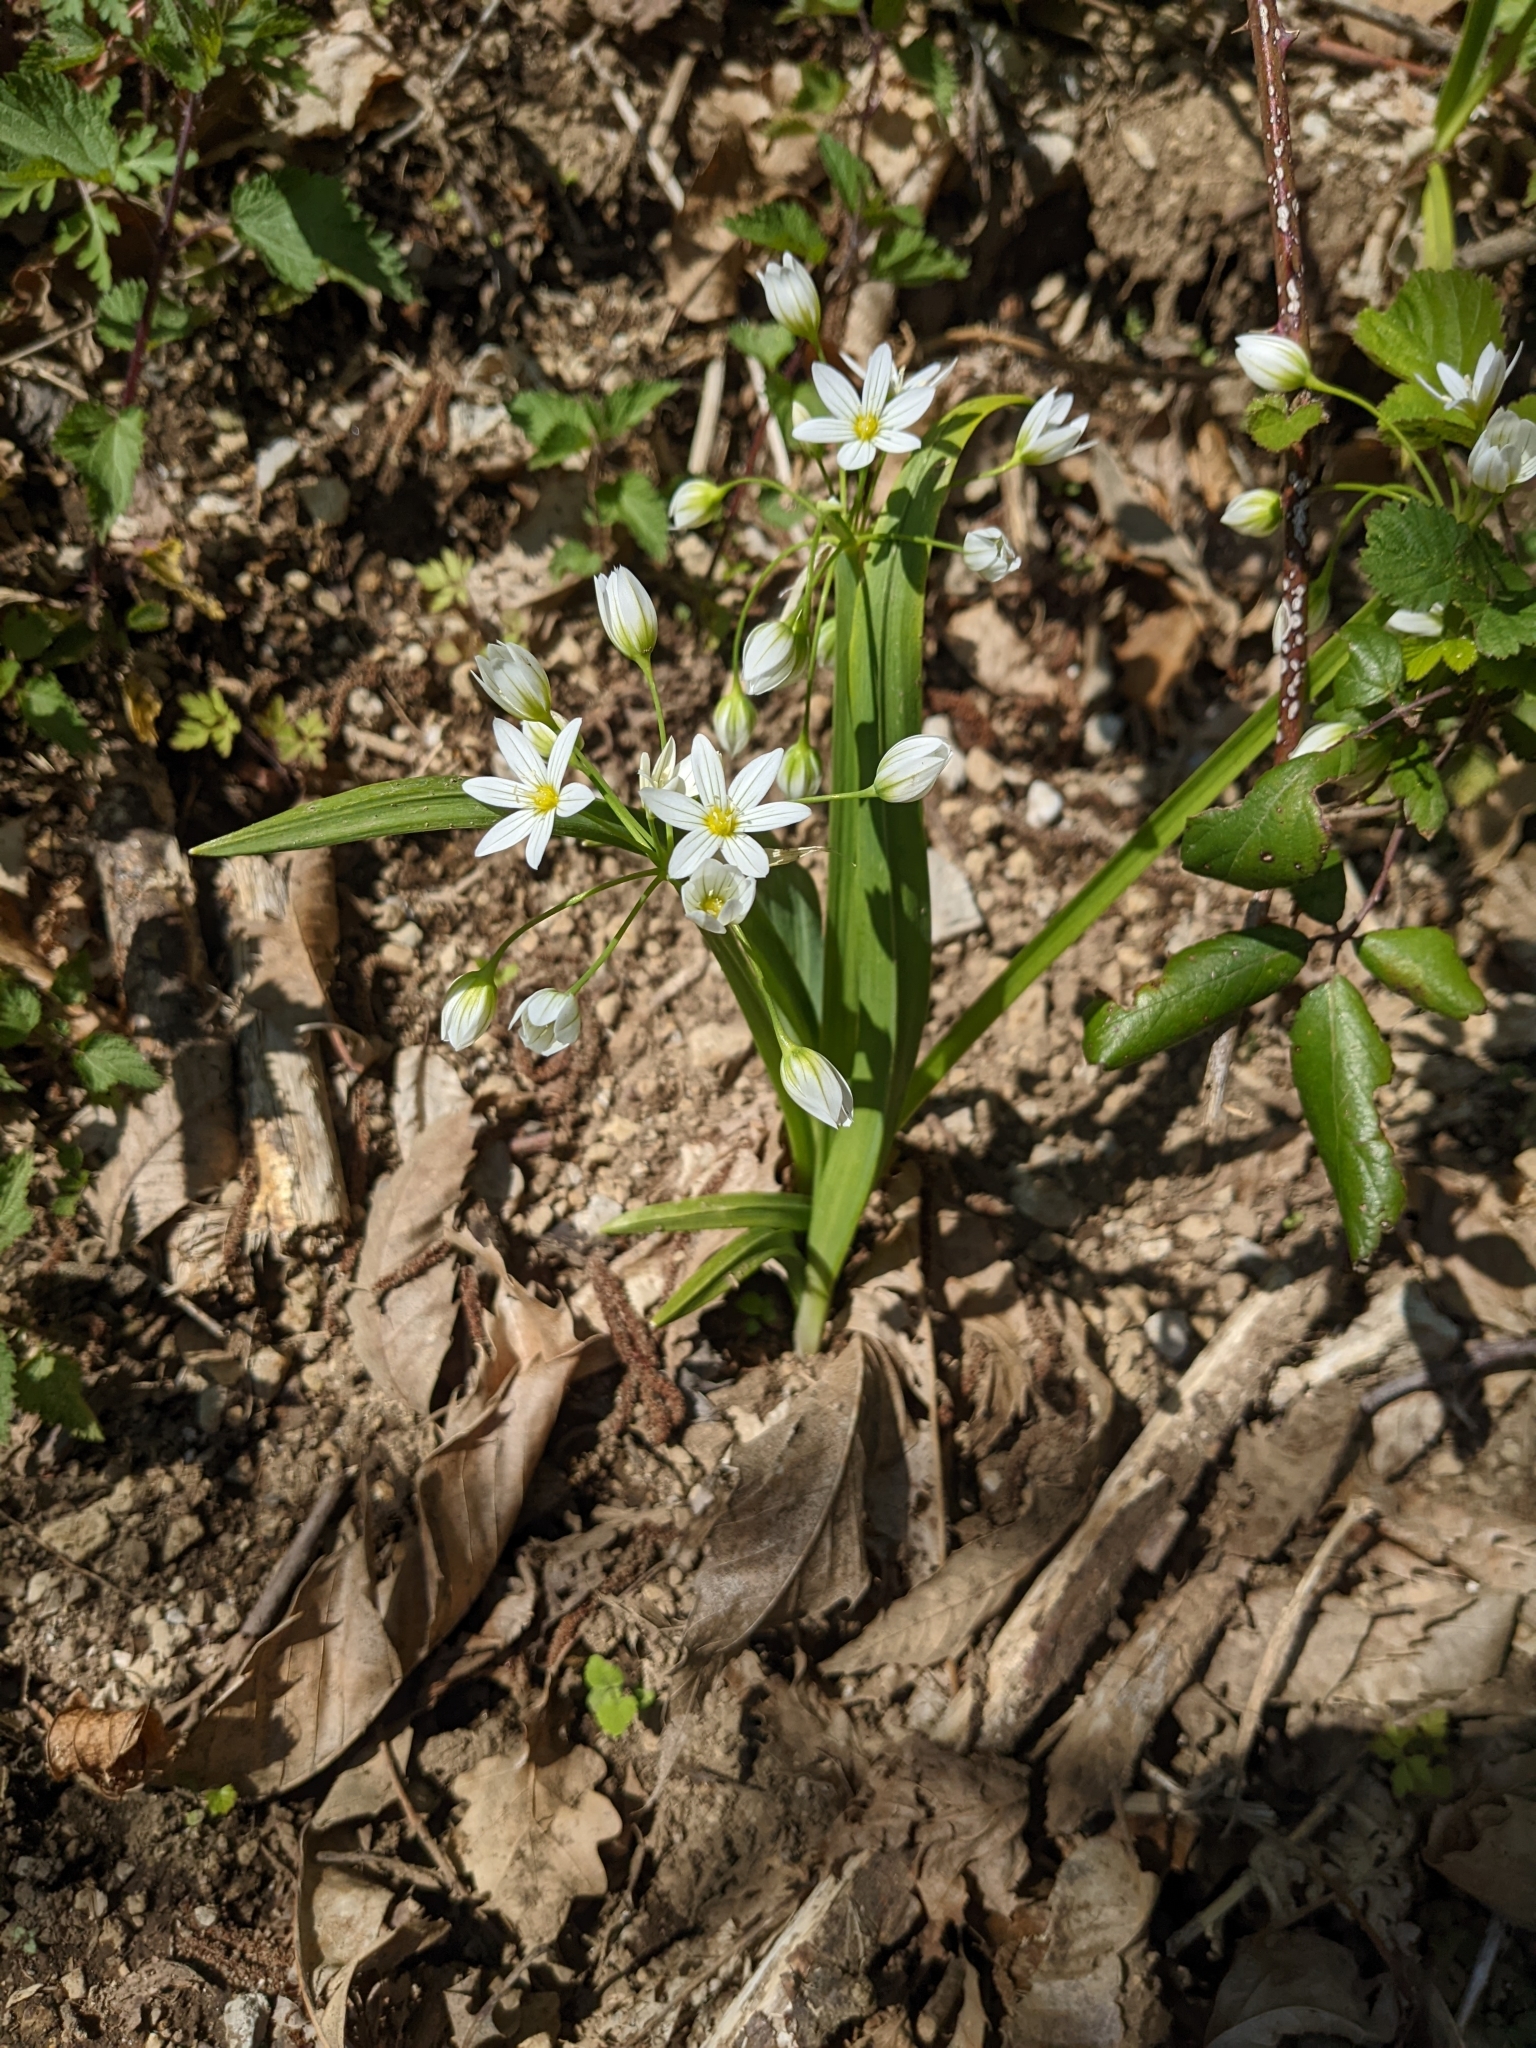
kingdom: Plantae
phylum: Tracheophyta
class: Liliopsida
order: Asparagales
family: Amaryllidaceae
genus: Allium
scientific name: Allium pendulinum
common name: Italian garlic
